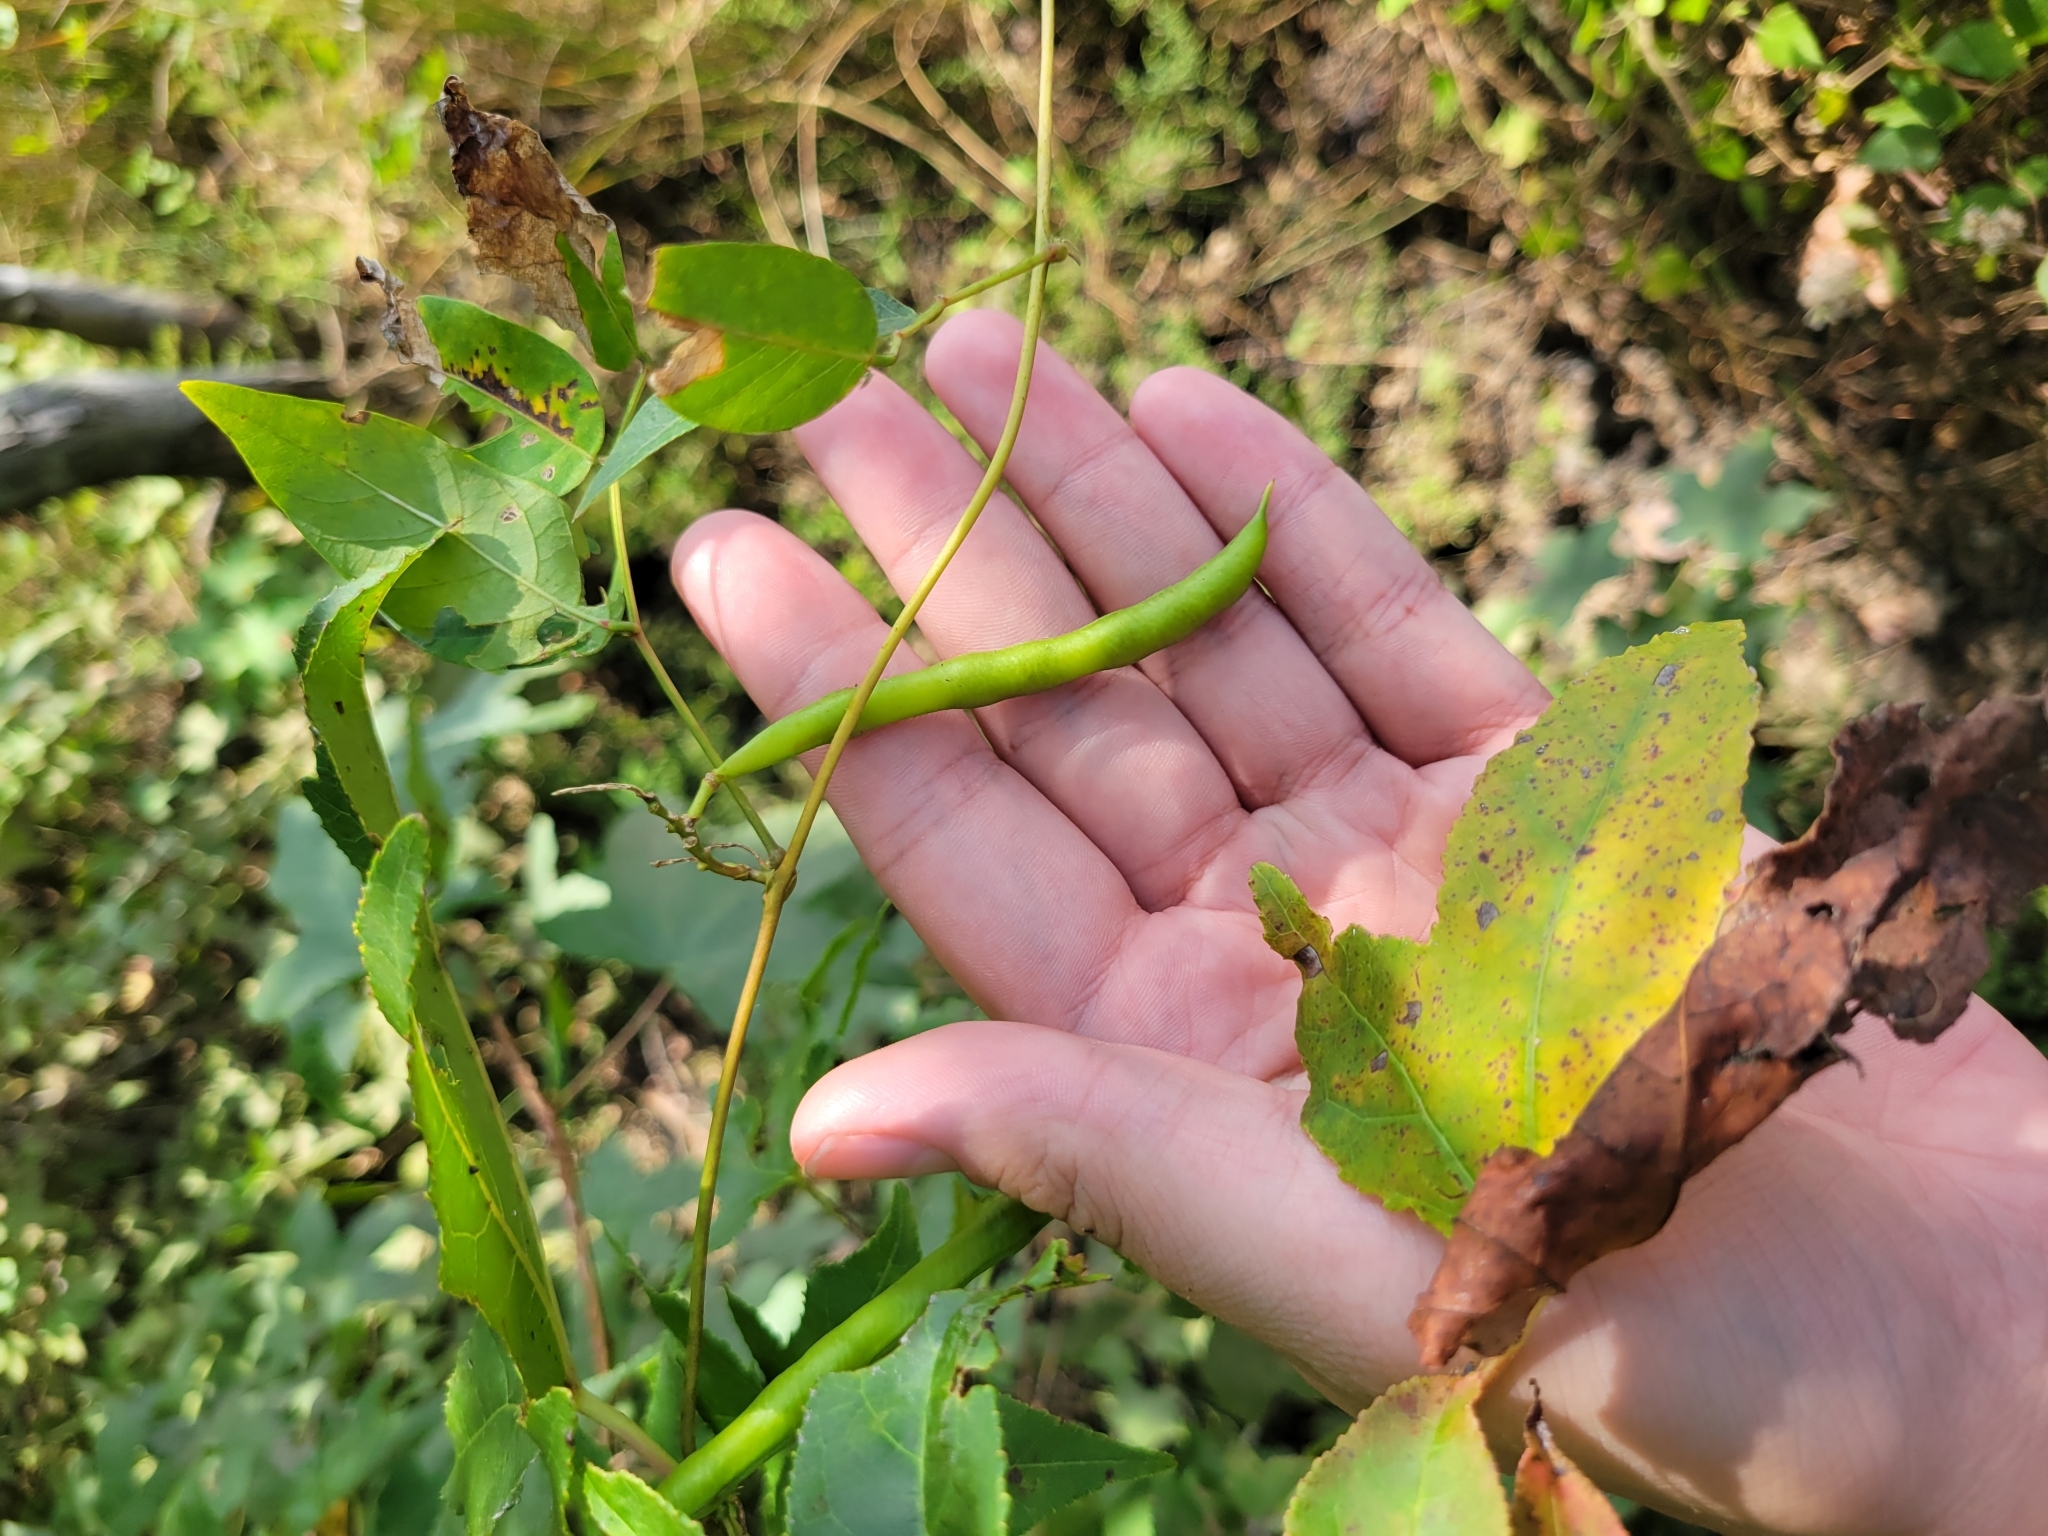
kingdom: Plantae
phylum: Tracheophyta
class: Magnoliopsida
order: Fabales
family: Fabaceae
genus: Apios
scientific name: Apios americana
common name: American potato-bean
